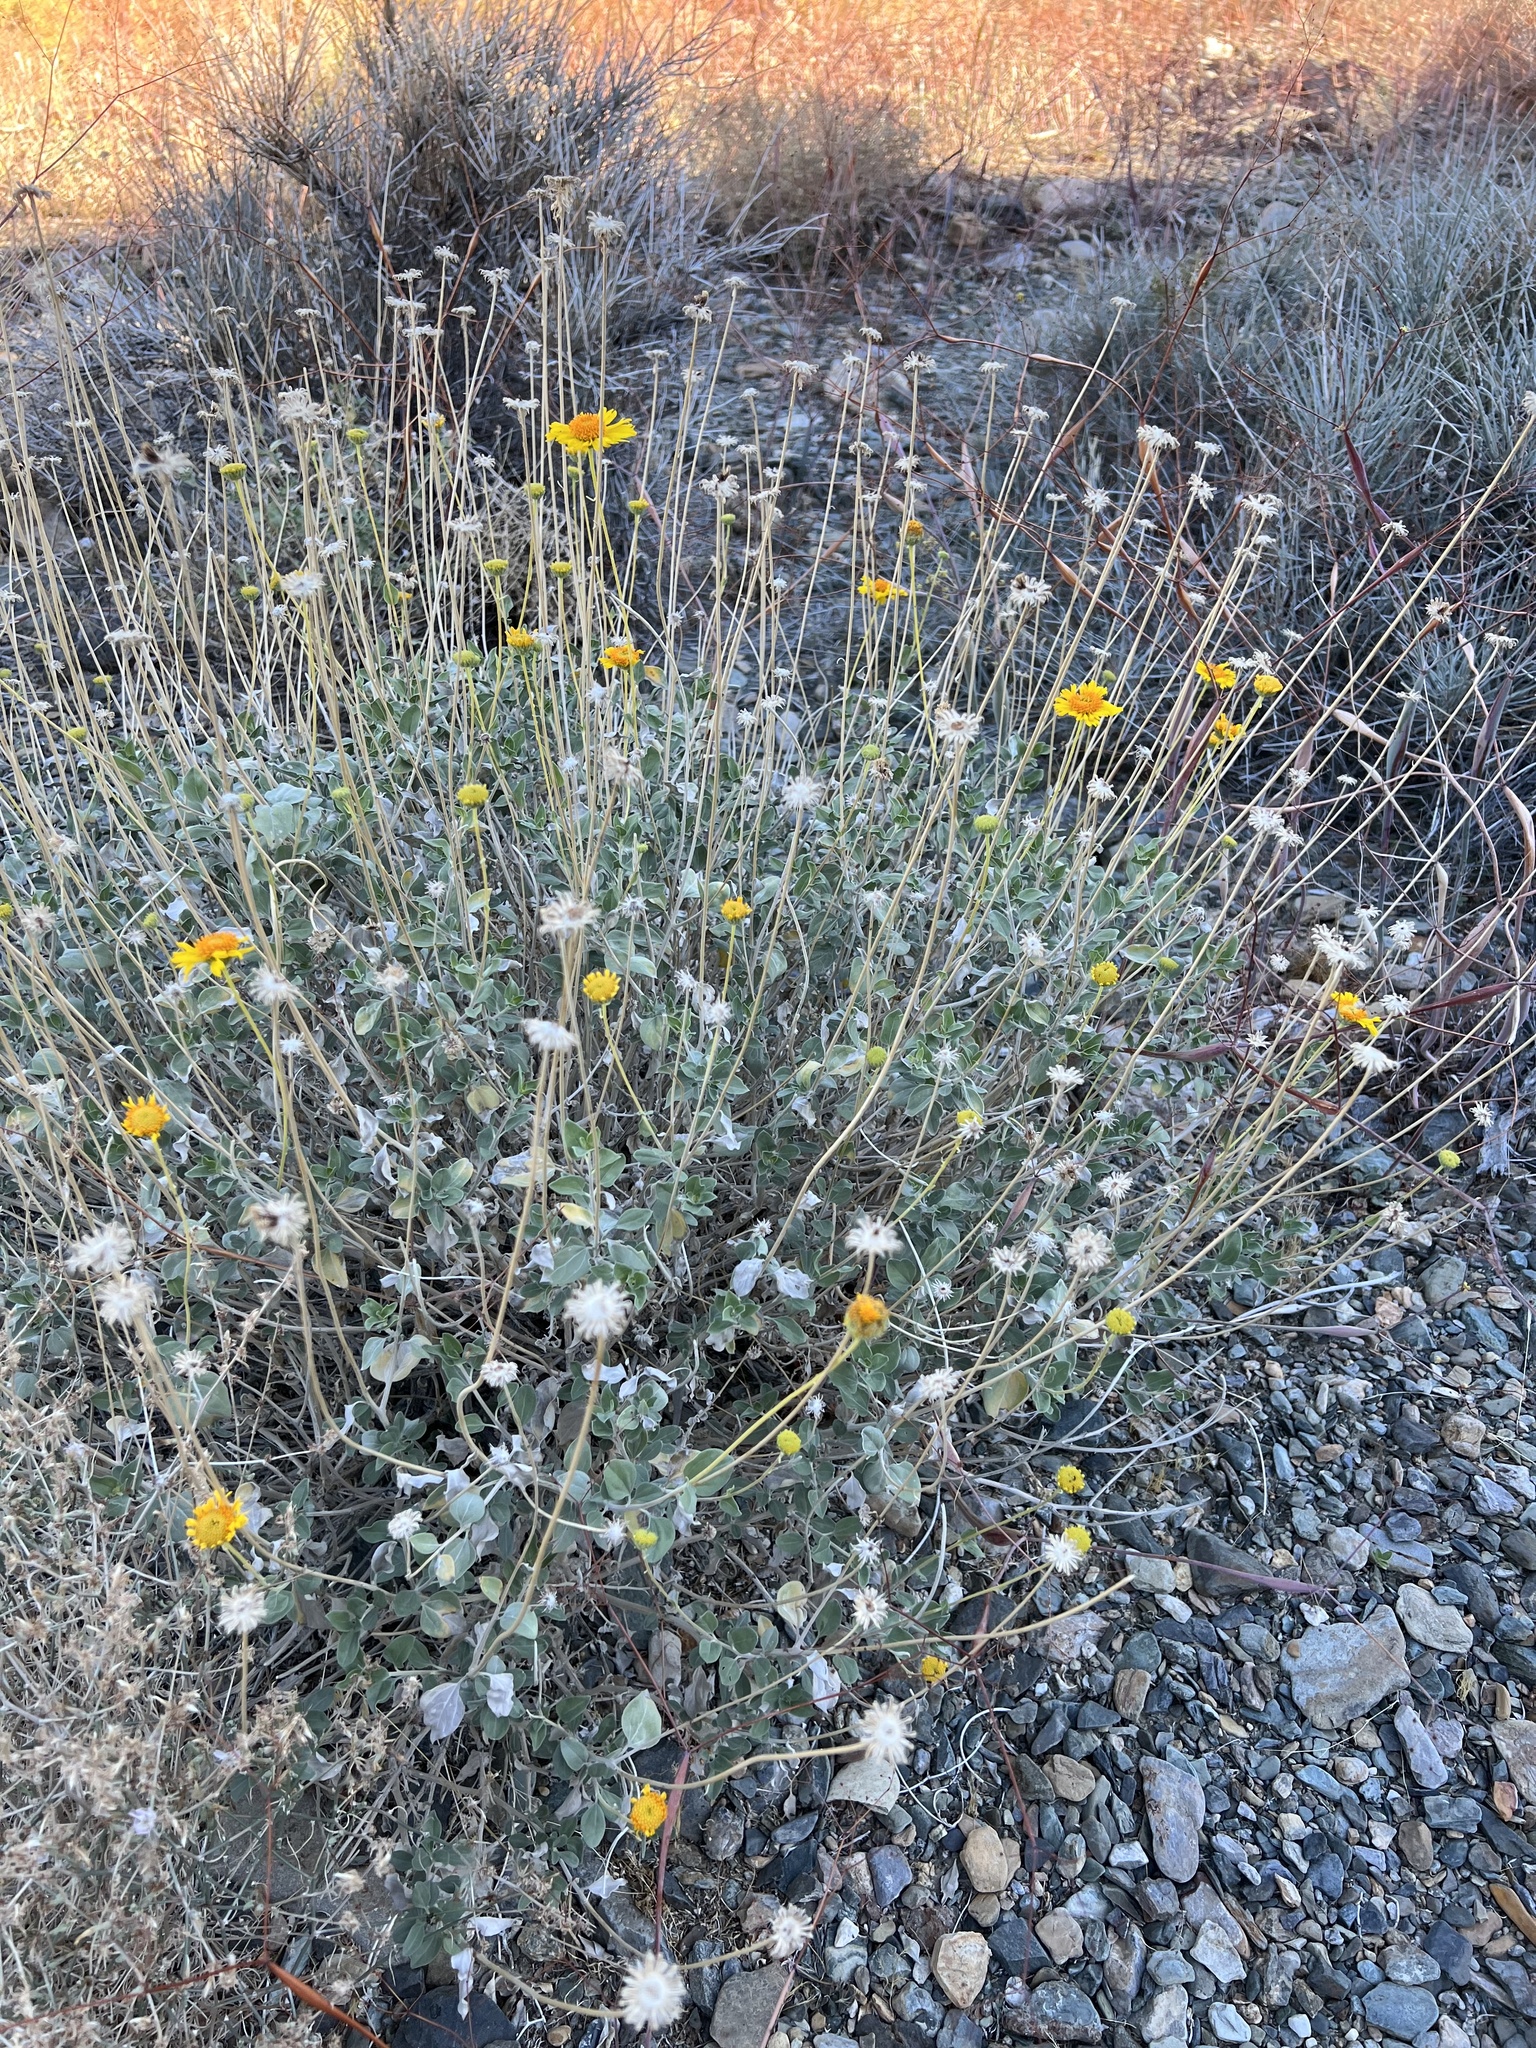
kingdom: Plantae
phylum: Tracheophyta
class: Magnoliopsida
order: Asterales
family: Asteraceae
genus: Encelia
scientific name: Encelia actoni
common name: Acton encelia
